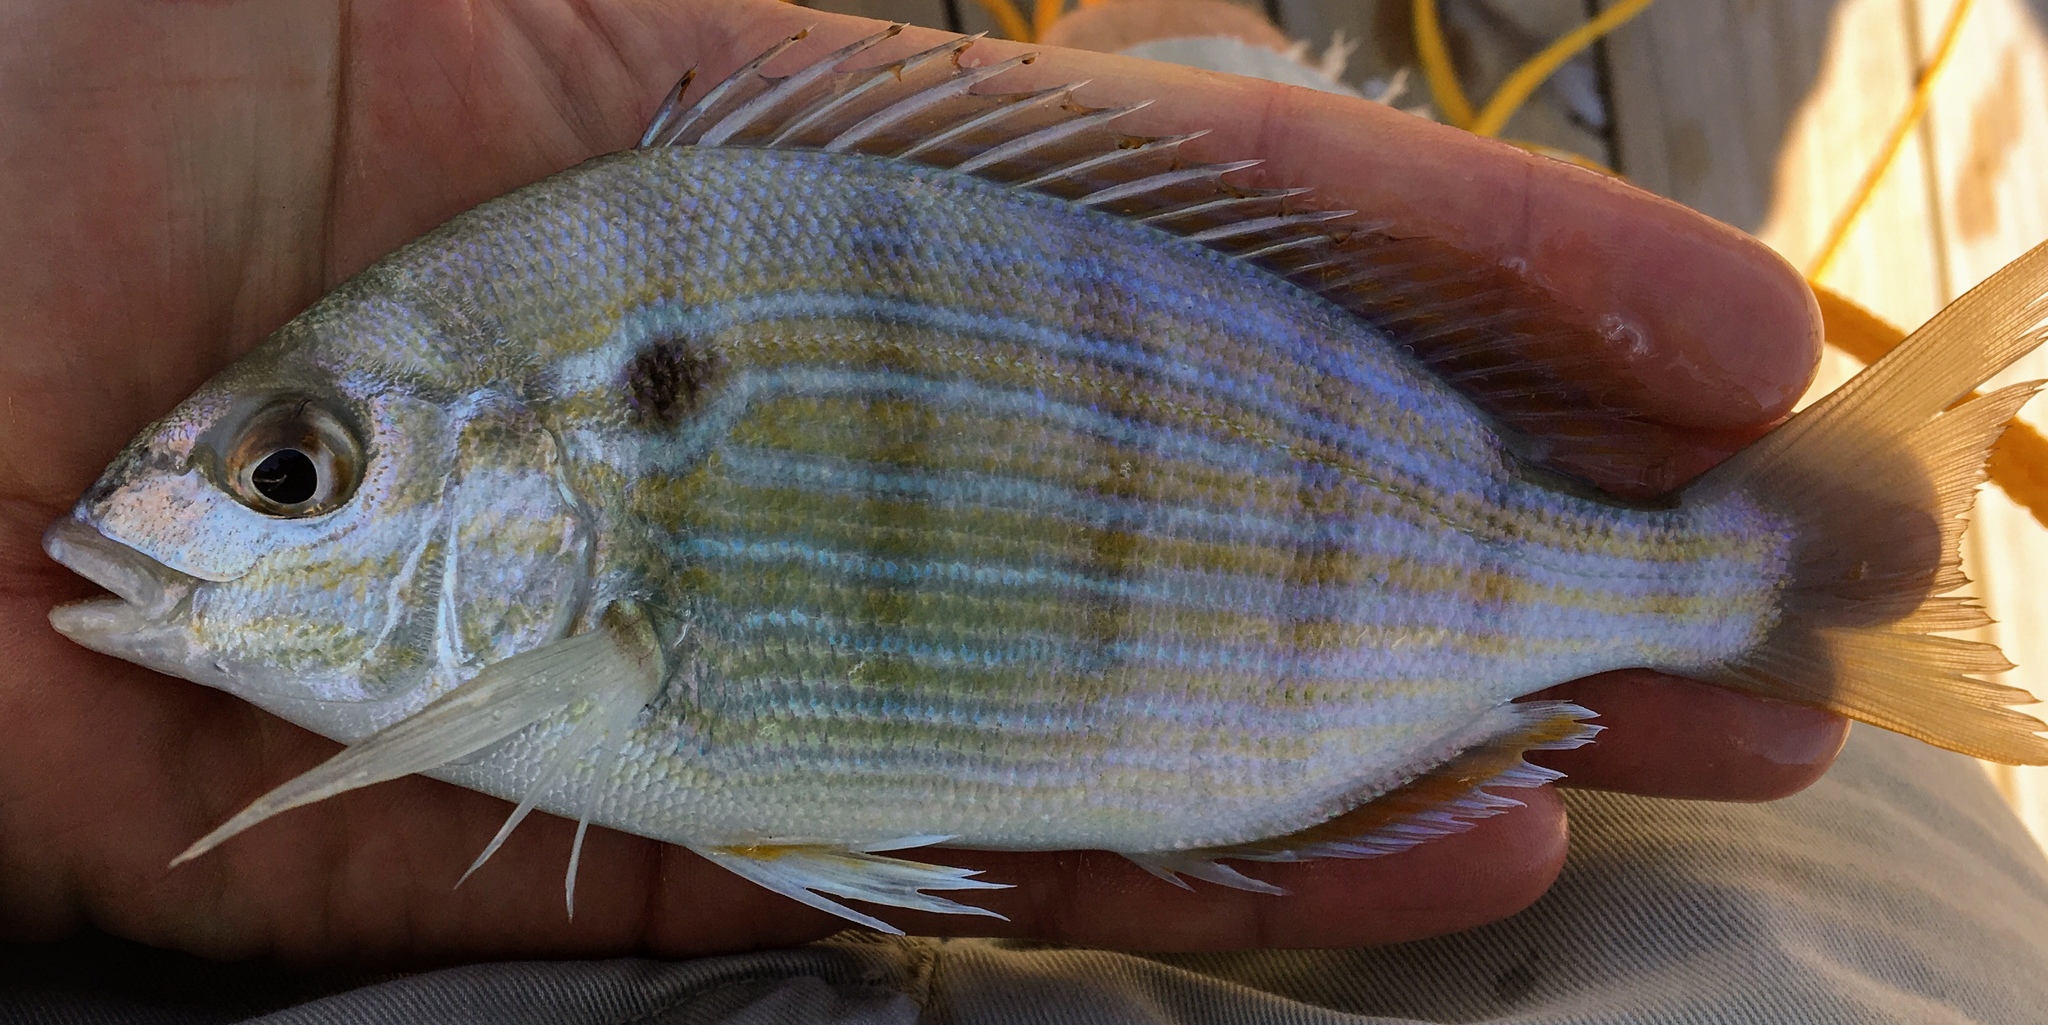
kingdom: Animalia
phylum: Chordata
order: Perciformes
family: Sparidae
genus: Lagodon
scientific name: Lagodon rhomboides
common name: Pinfish
